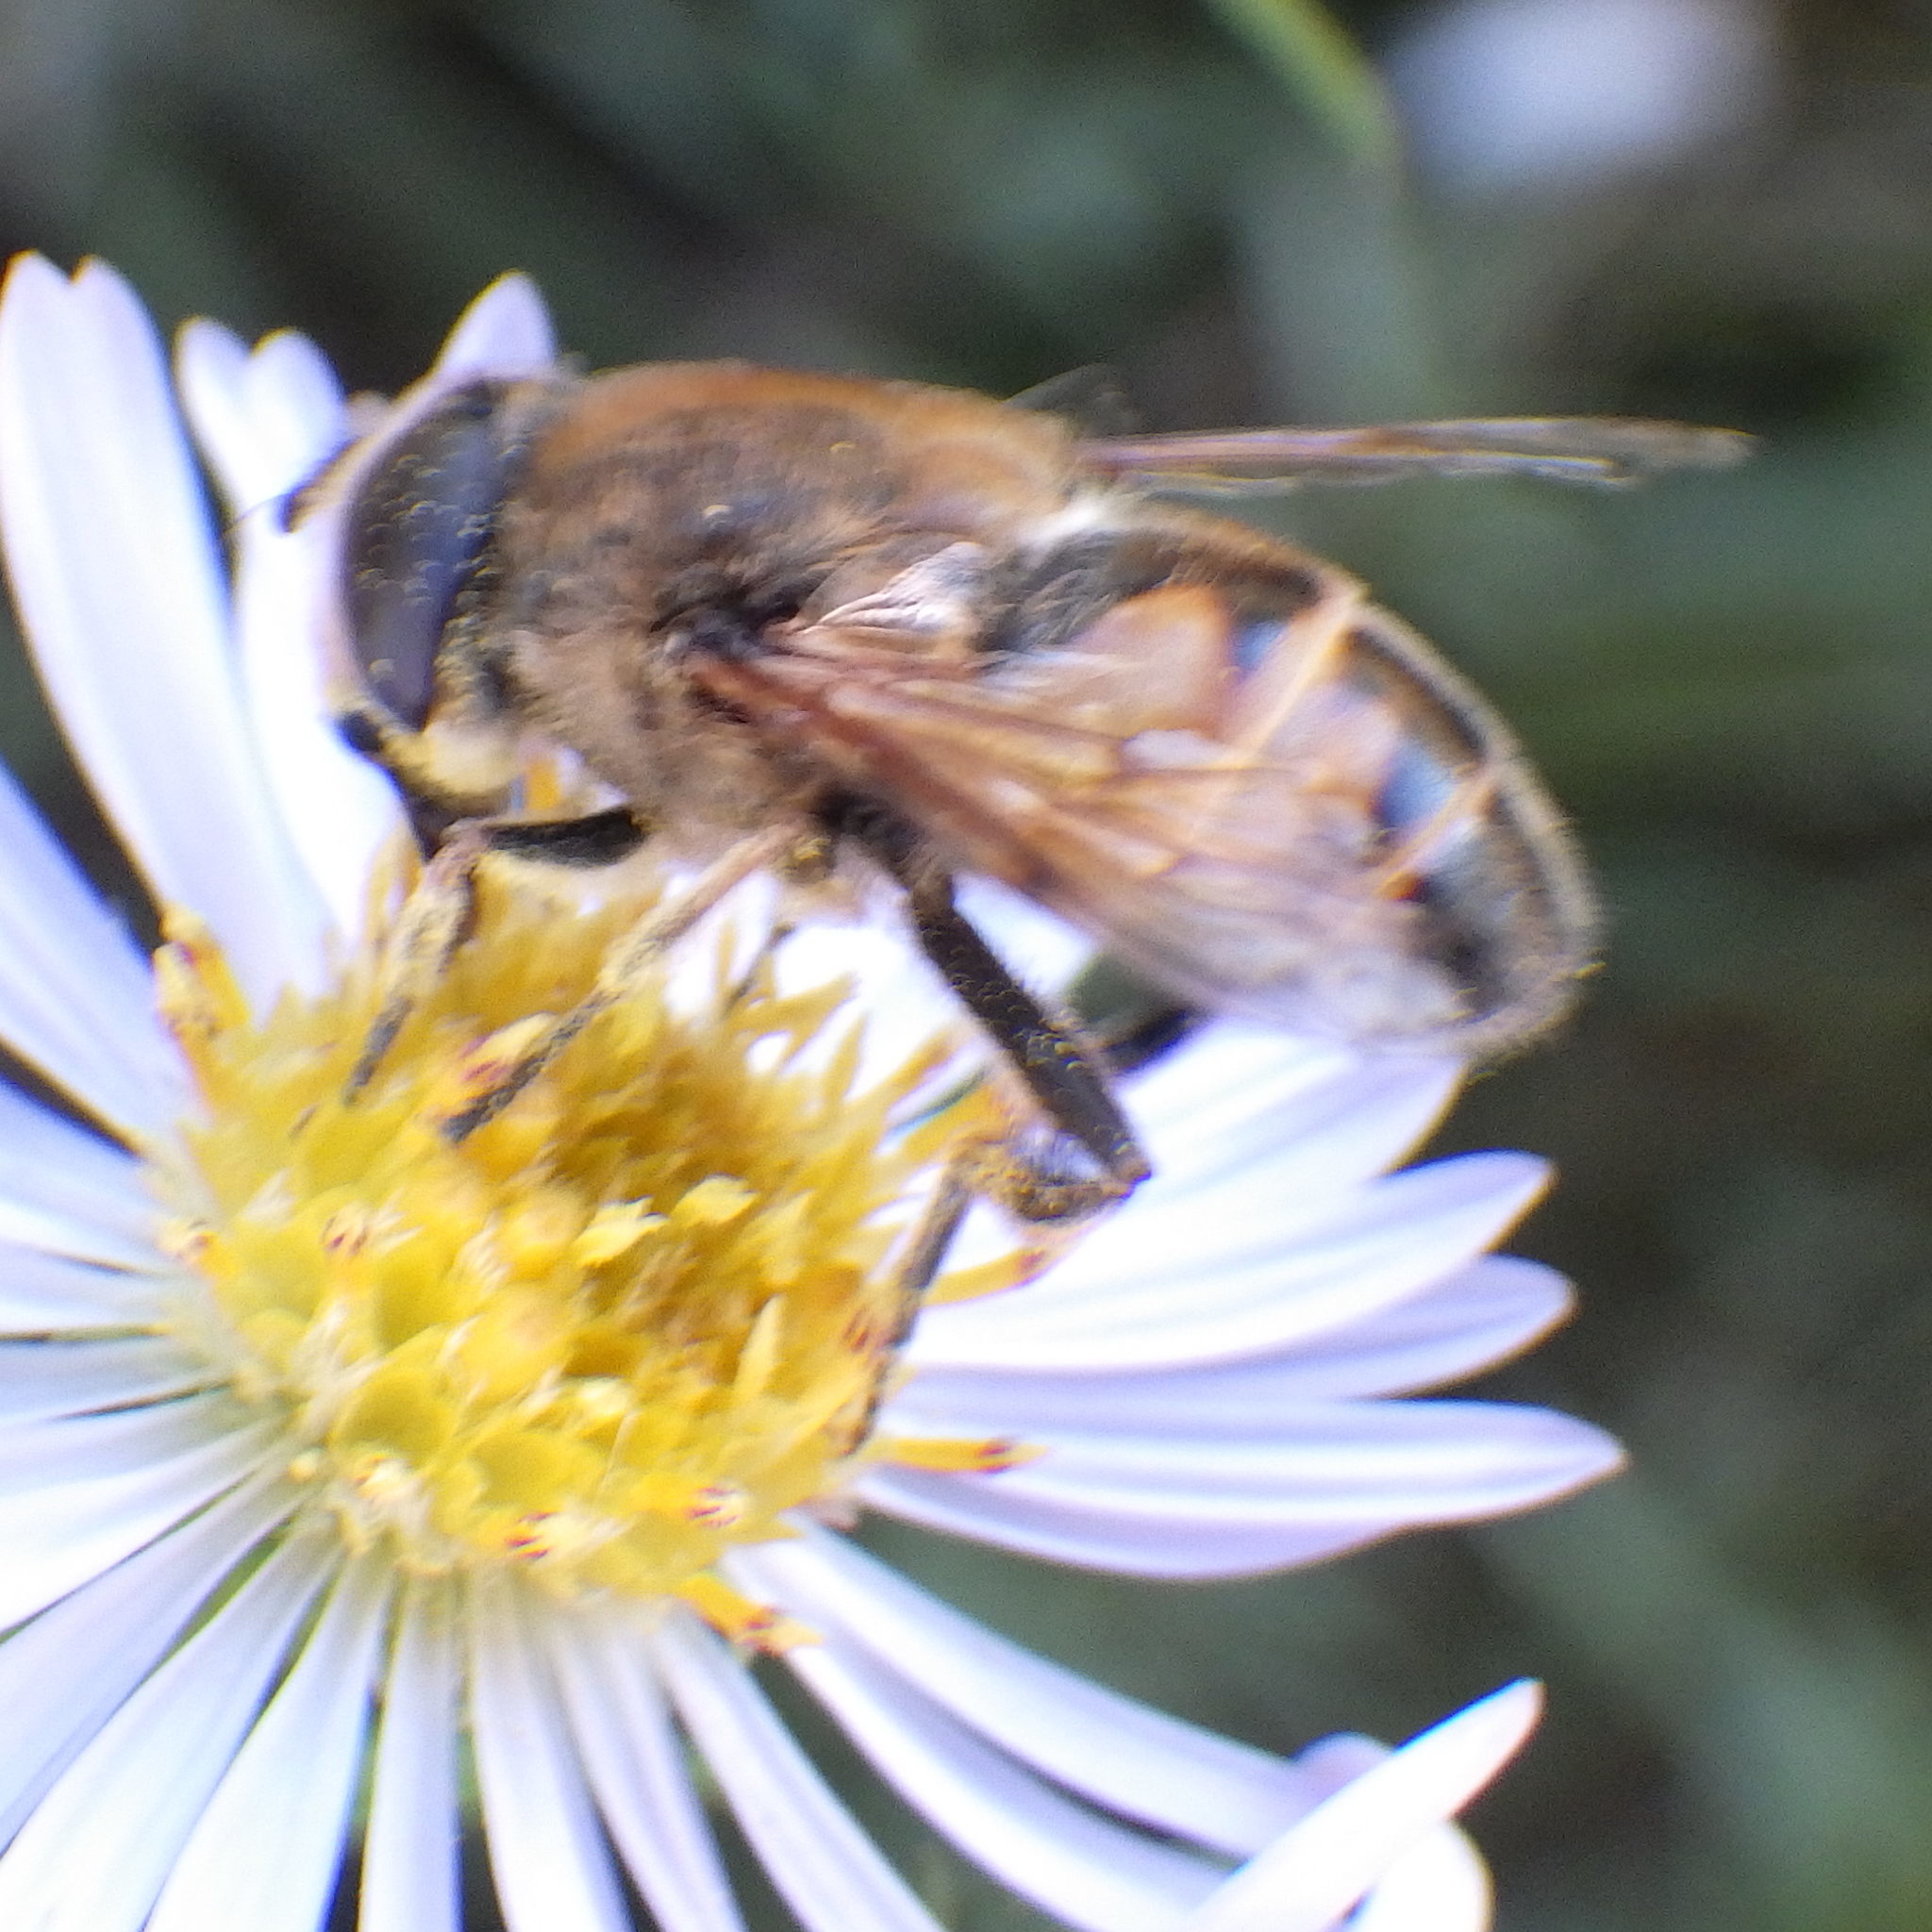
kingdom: Animalia
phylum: Arthropoda
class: Insecta
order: Diptera
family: Syrphidae
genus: Eristalis
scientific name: Eristalis tenax
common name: Drone fly
